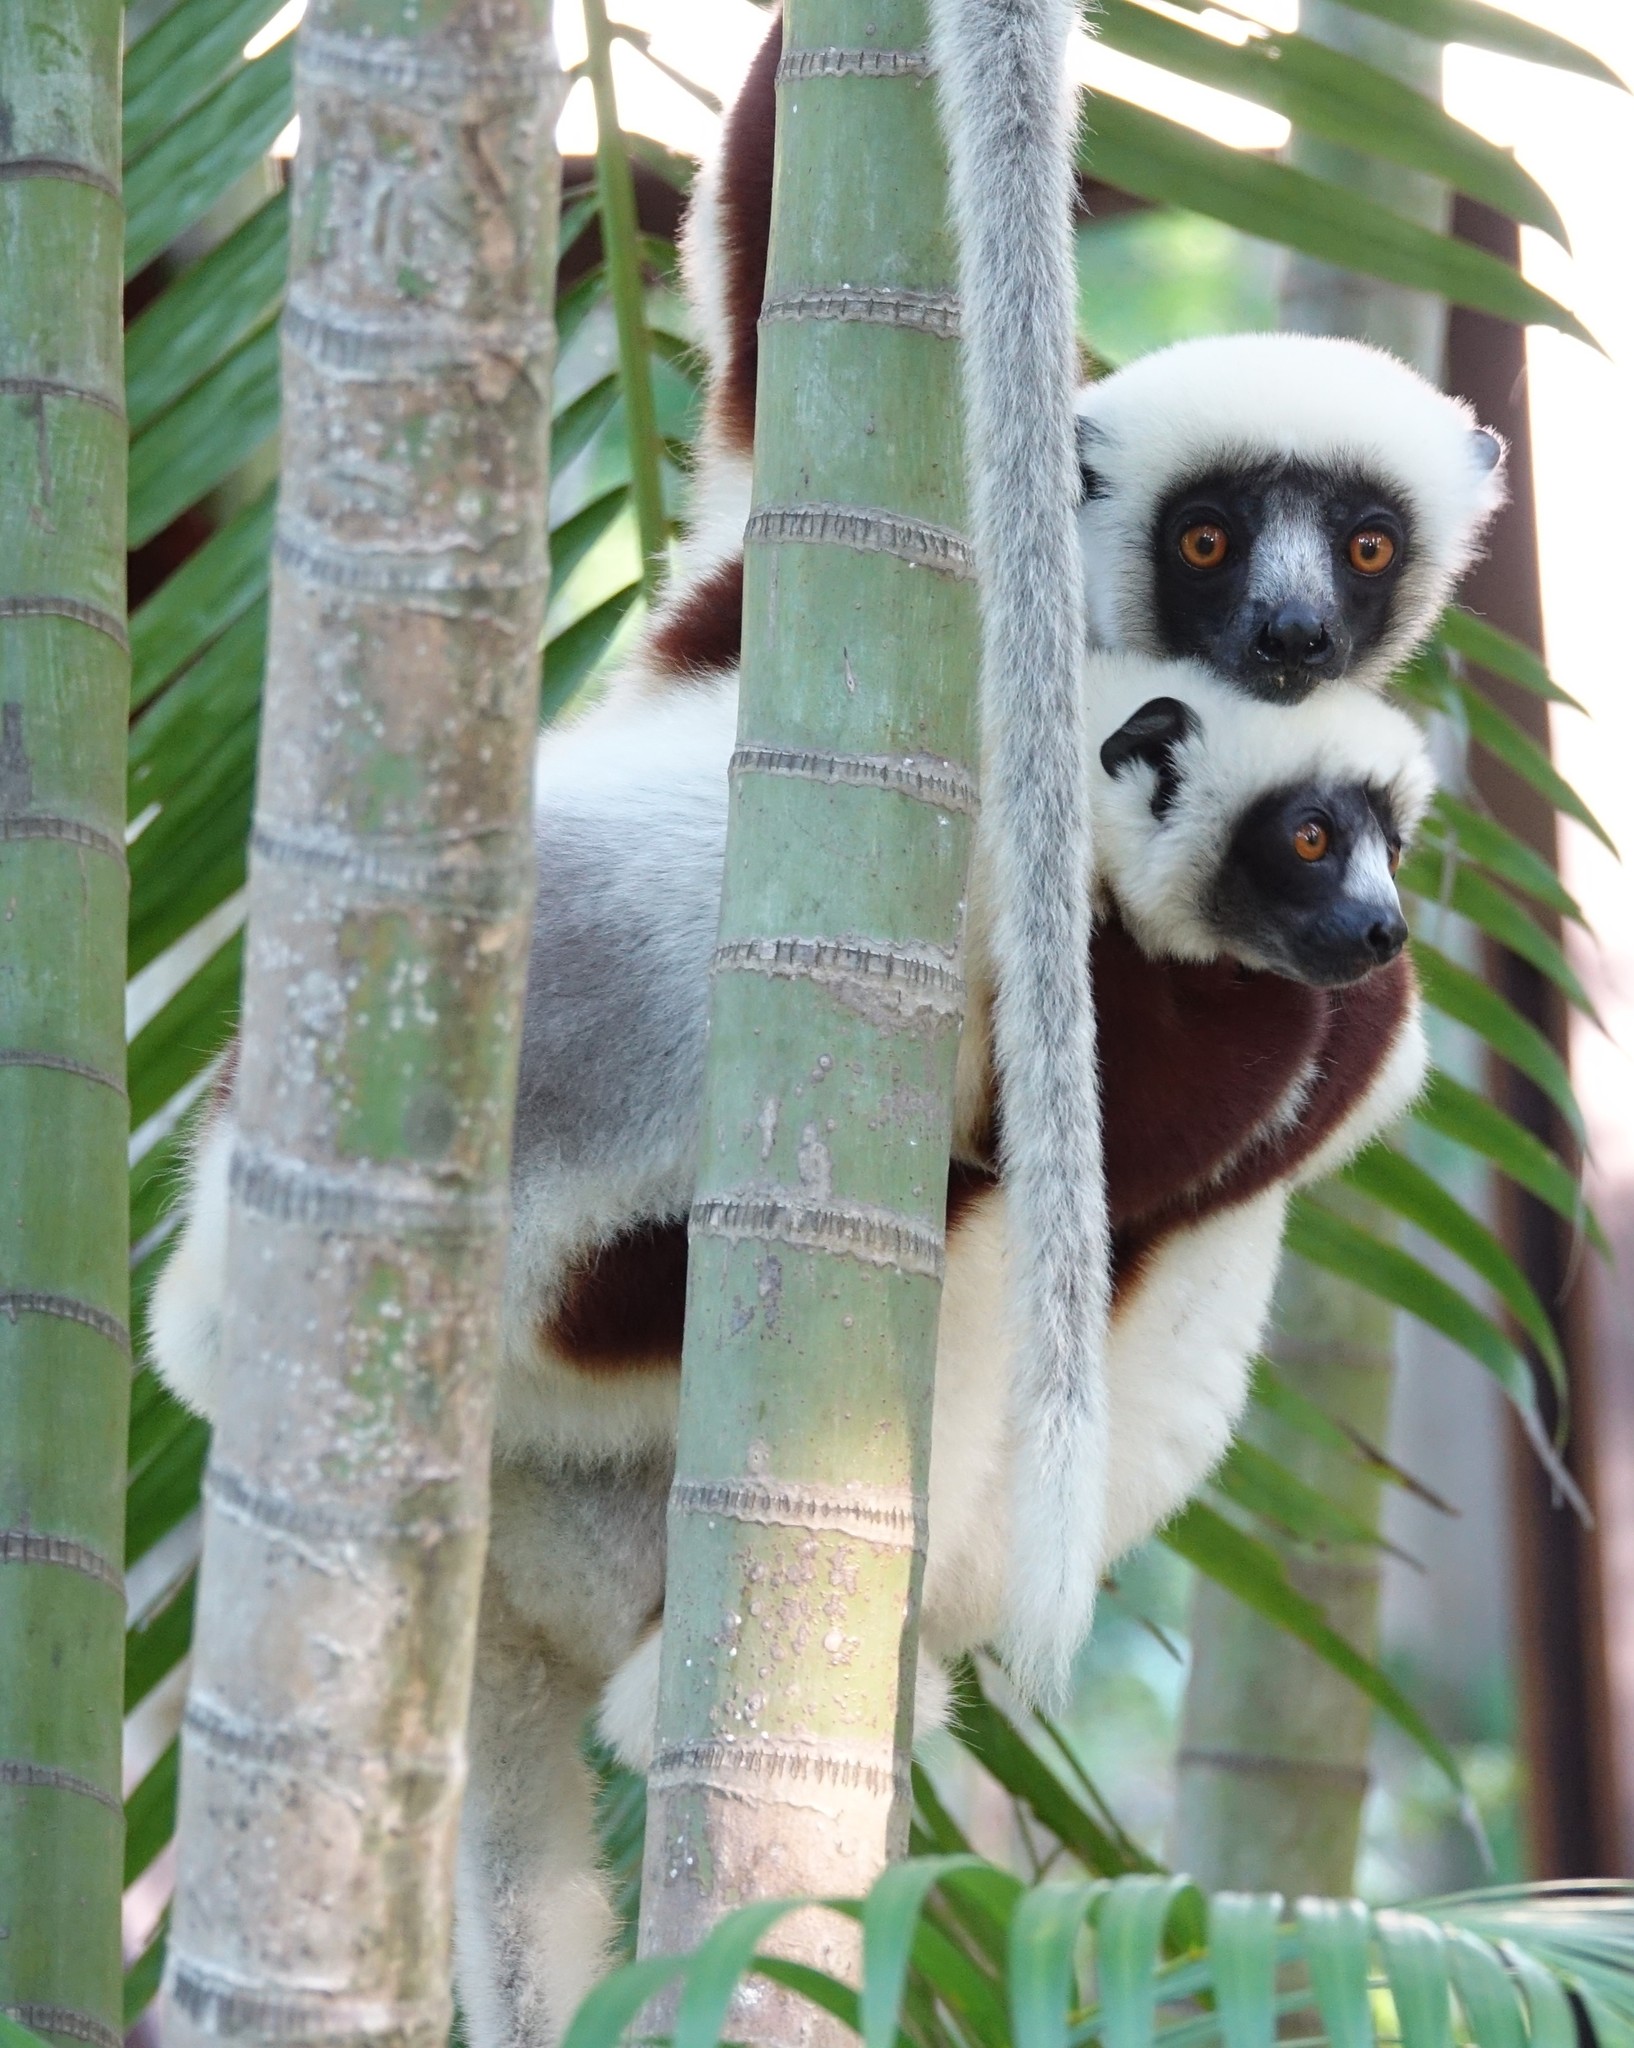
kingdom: Animalia
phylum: Chordata
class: Mammalia
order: Primates
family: Indriidae
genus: Propithecus
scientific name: Propithecus coquereli
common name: Coquerel's sifaka
